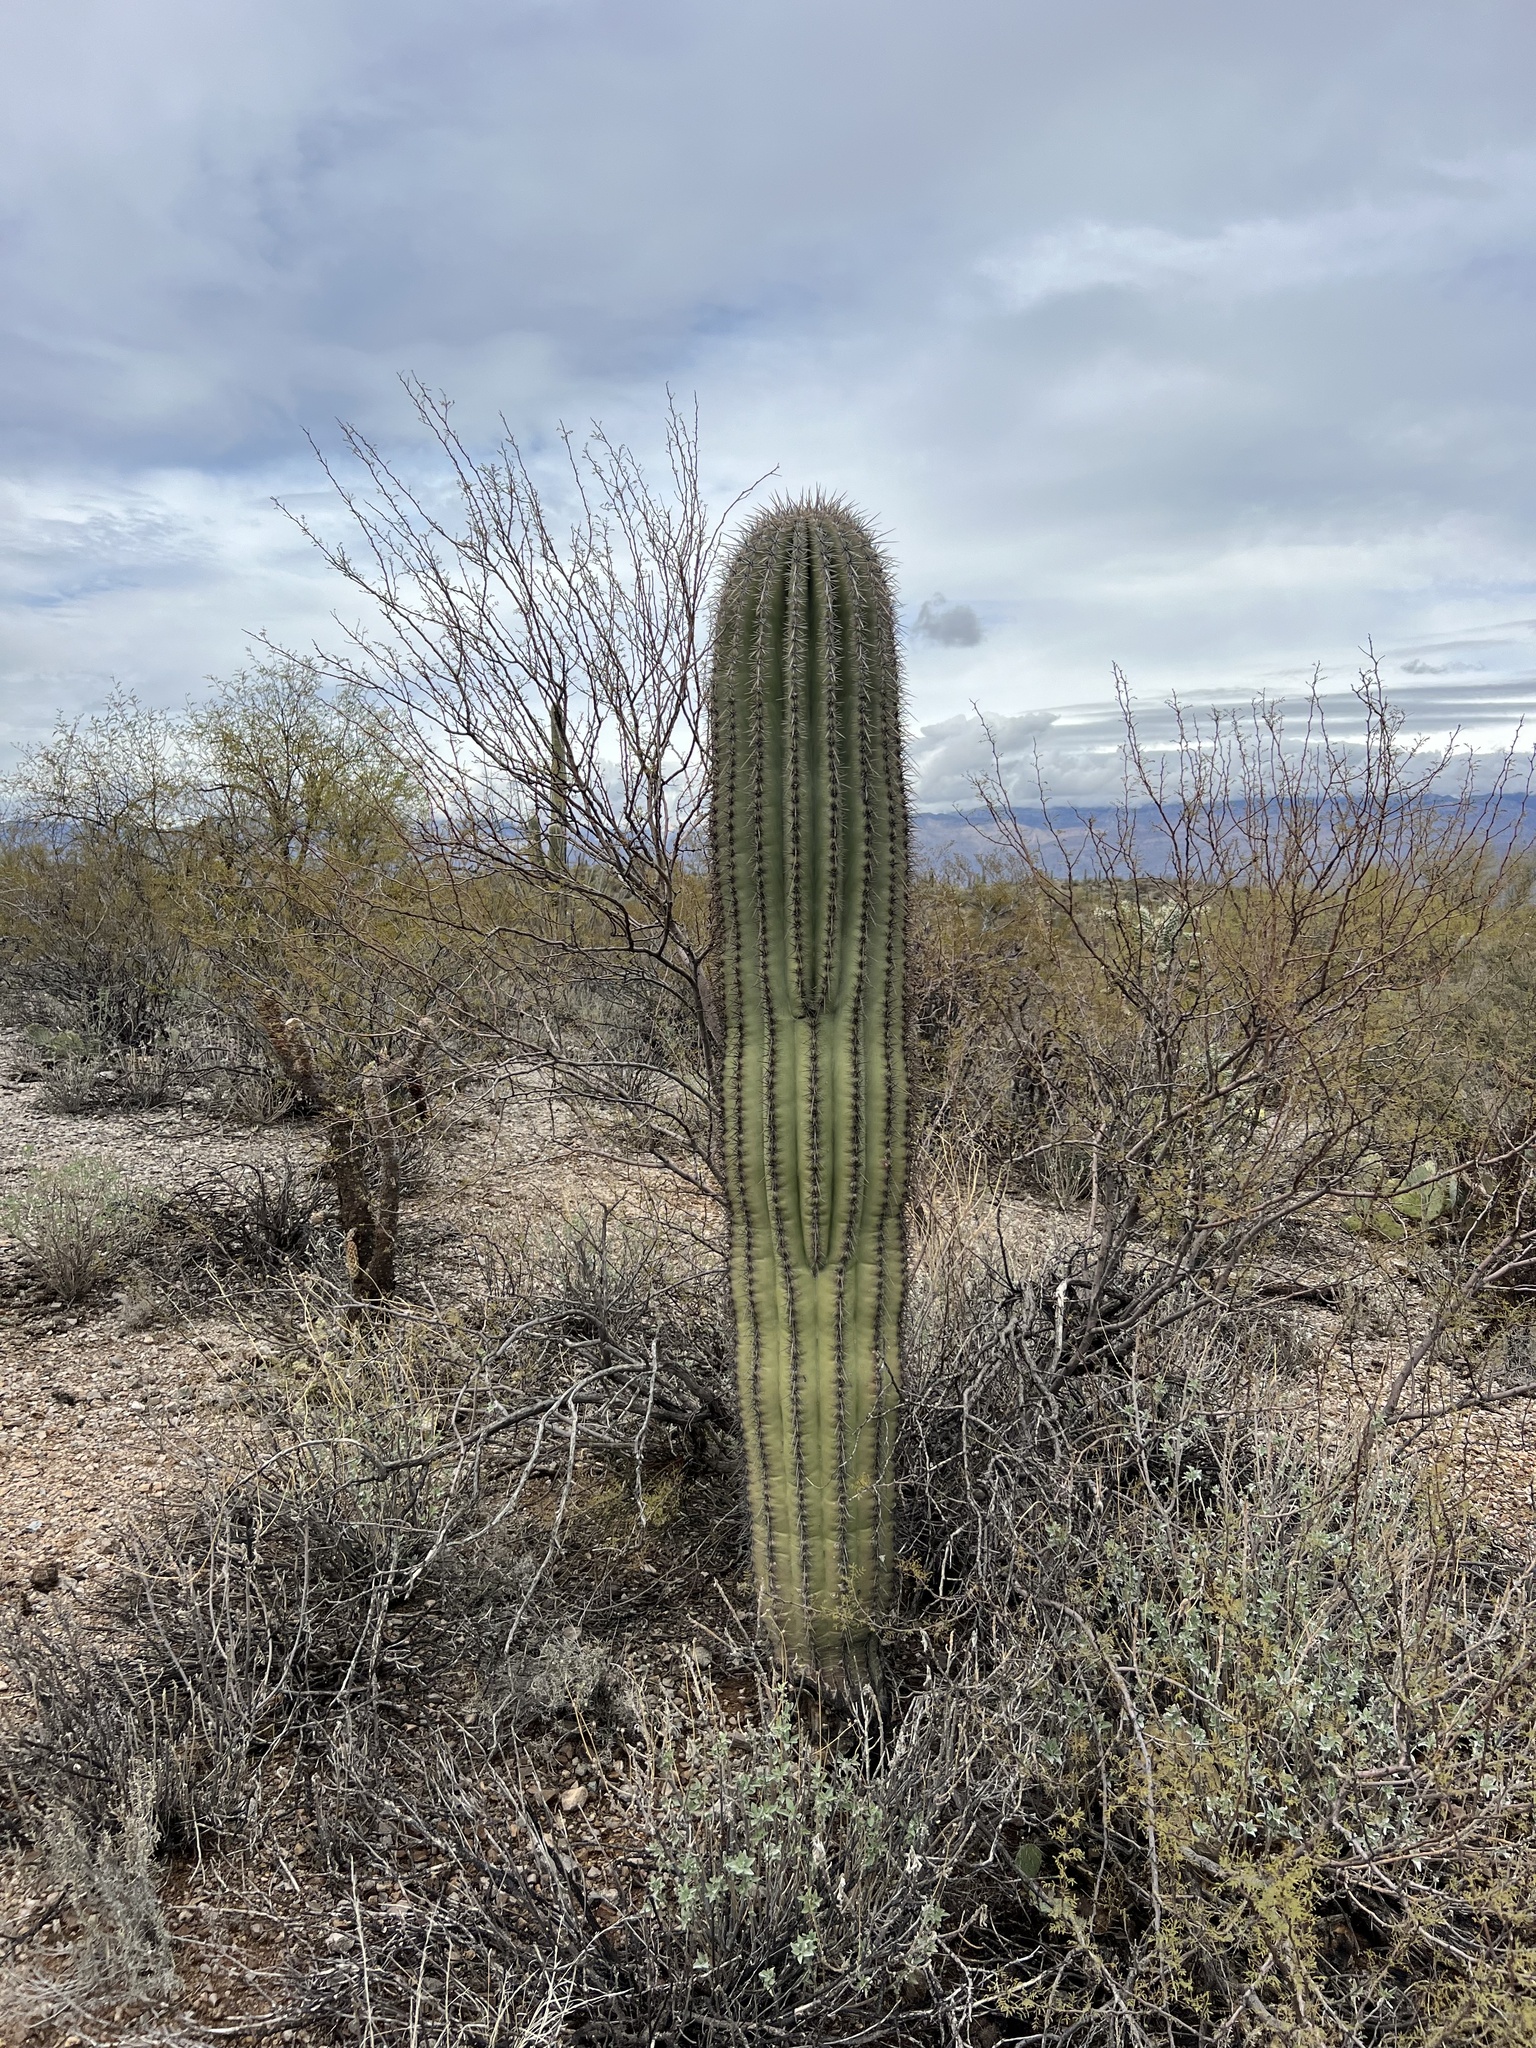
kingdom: Plantae
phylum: Tracheophyta
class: Magnoliopsida
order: Caryophyllales
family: Cactaceae
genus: Carnegiea
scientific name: Carnegiea gigantea
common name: Saguaro
